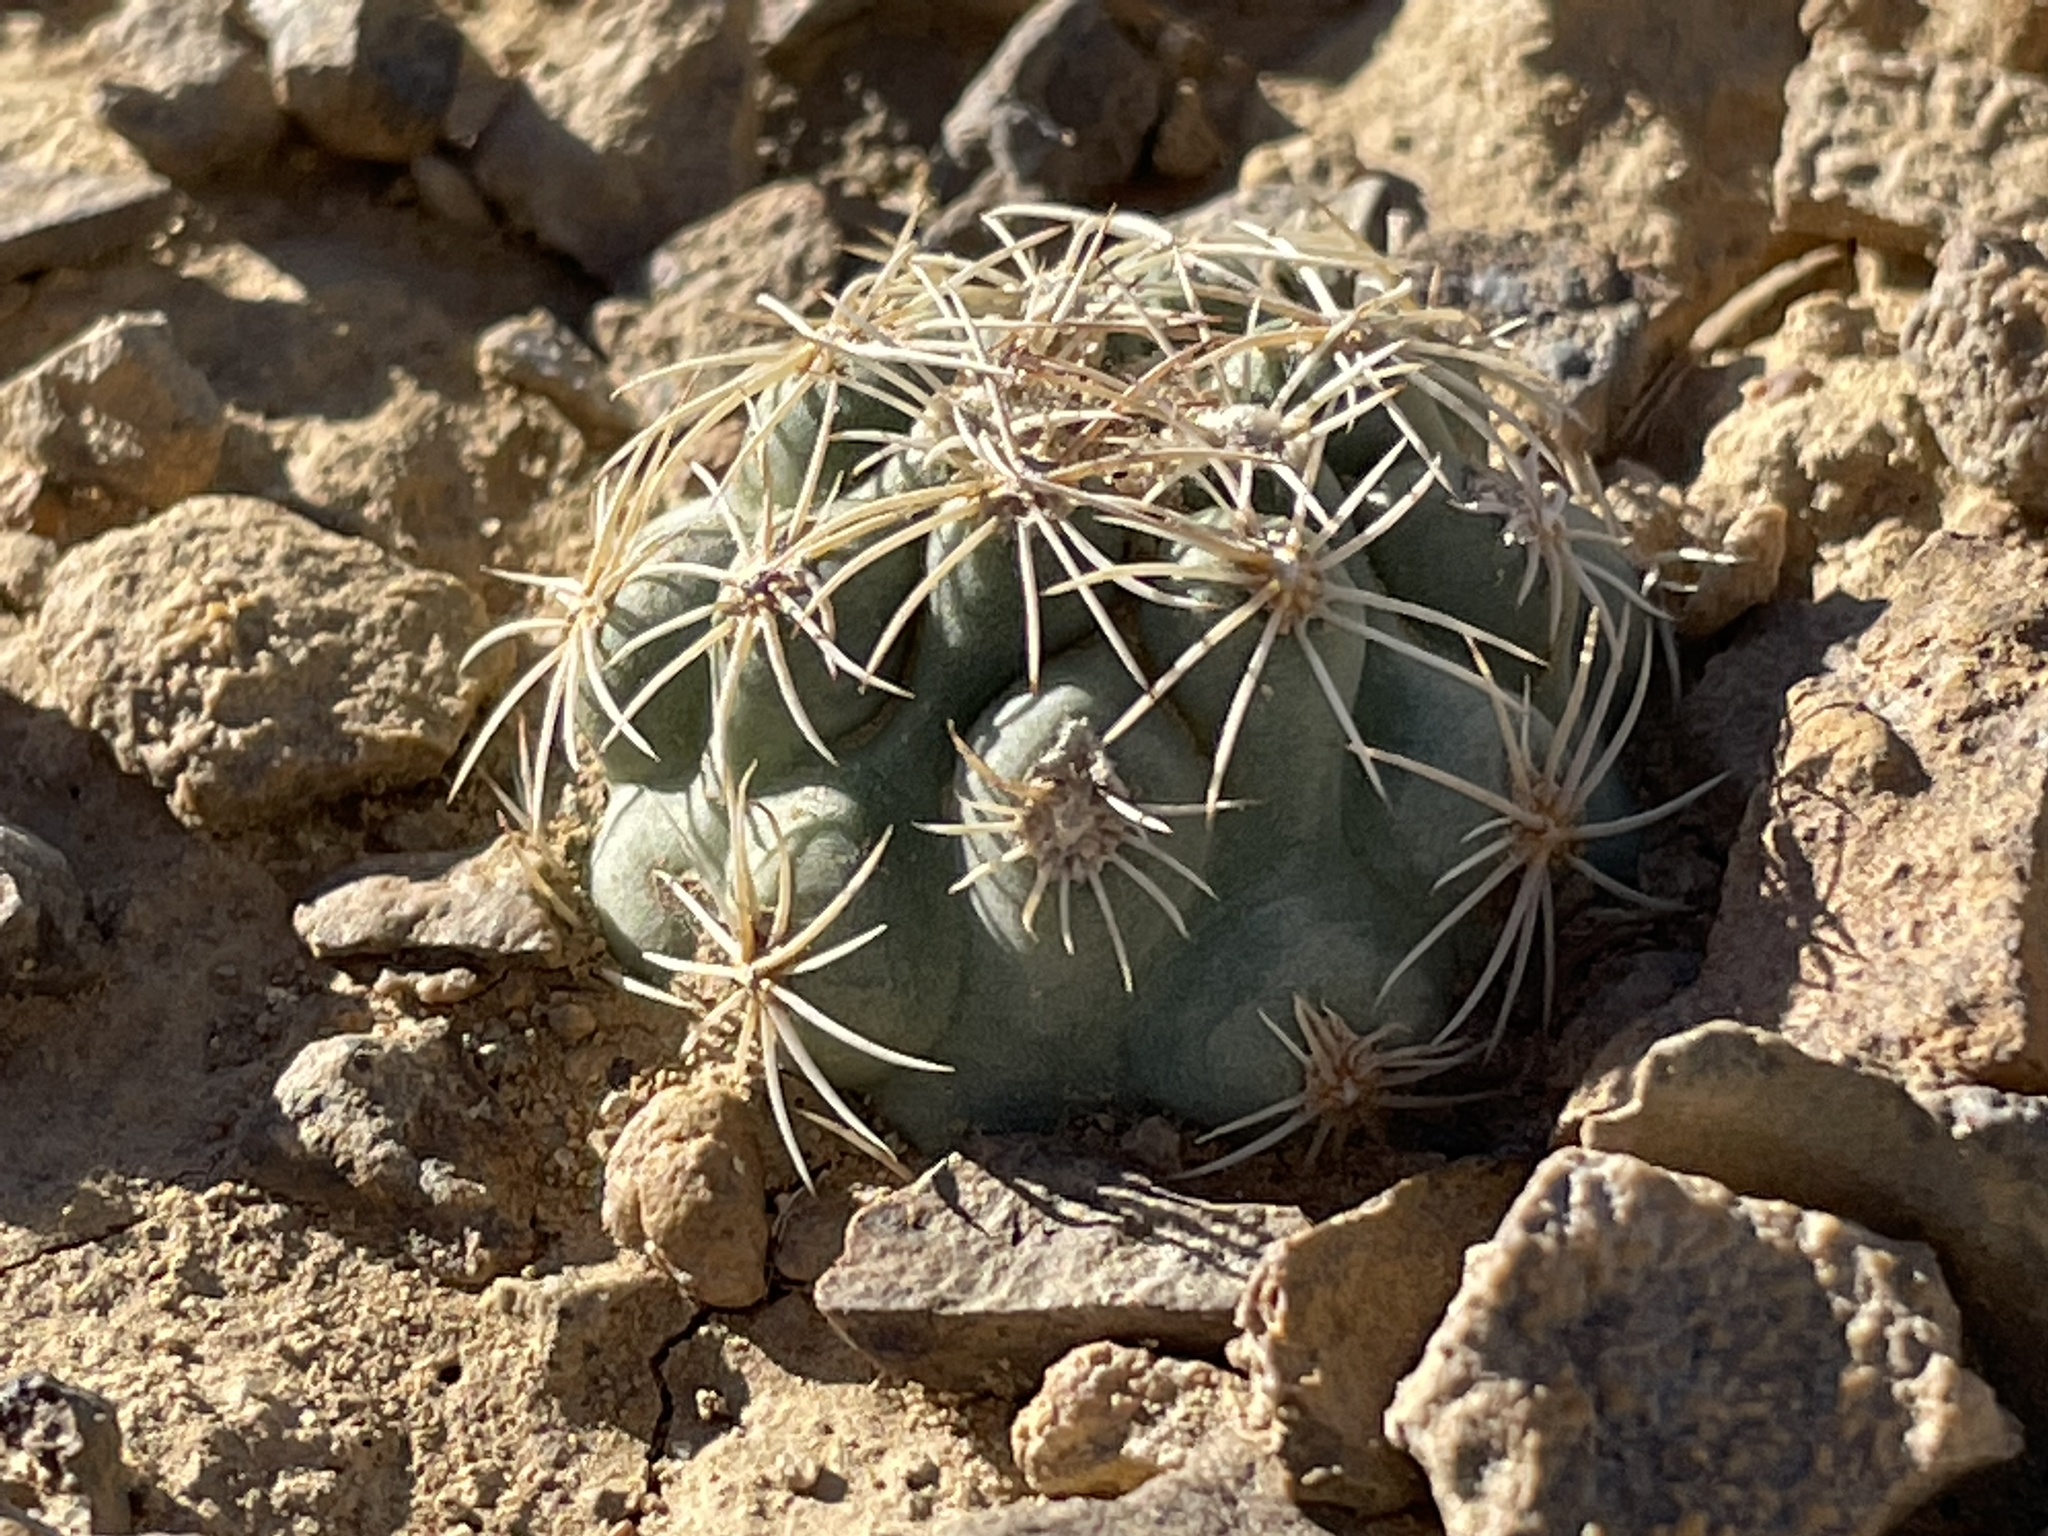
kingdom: Plantae
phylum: Tracheophyta
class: Magnoliopsida
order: Caryophyllales
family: Cactaceae
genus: Sclerocactus
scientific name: Sclerocactus mesae-verdae
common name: Mesa verde cactus
